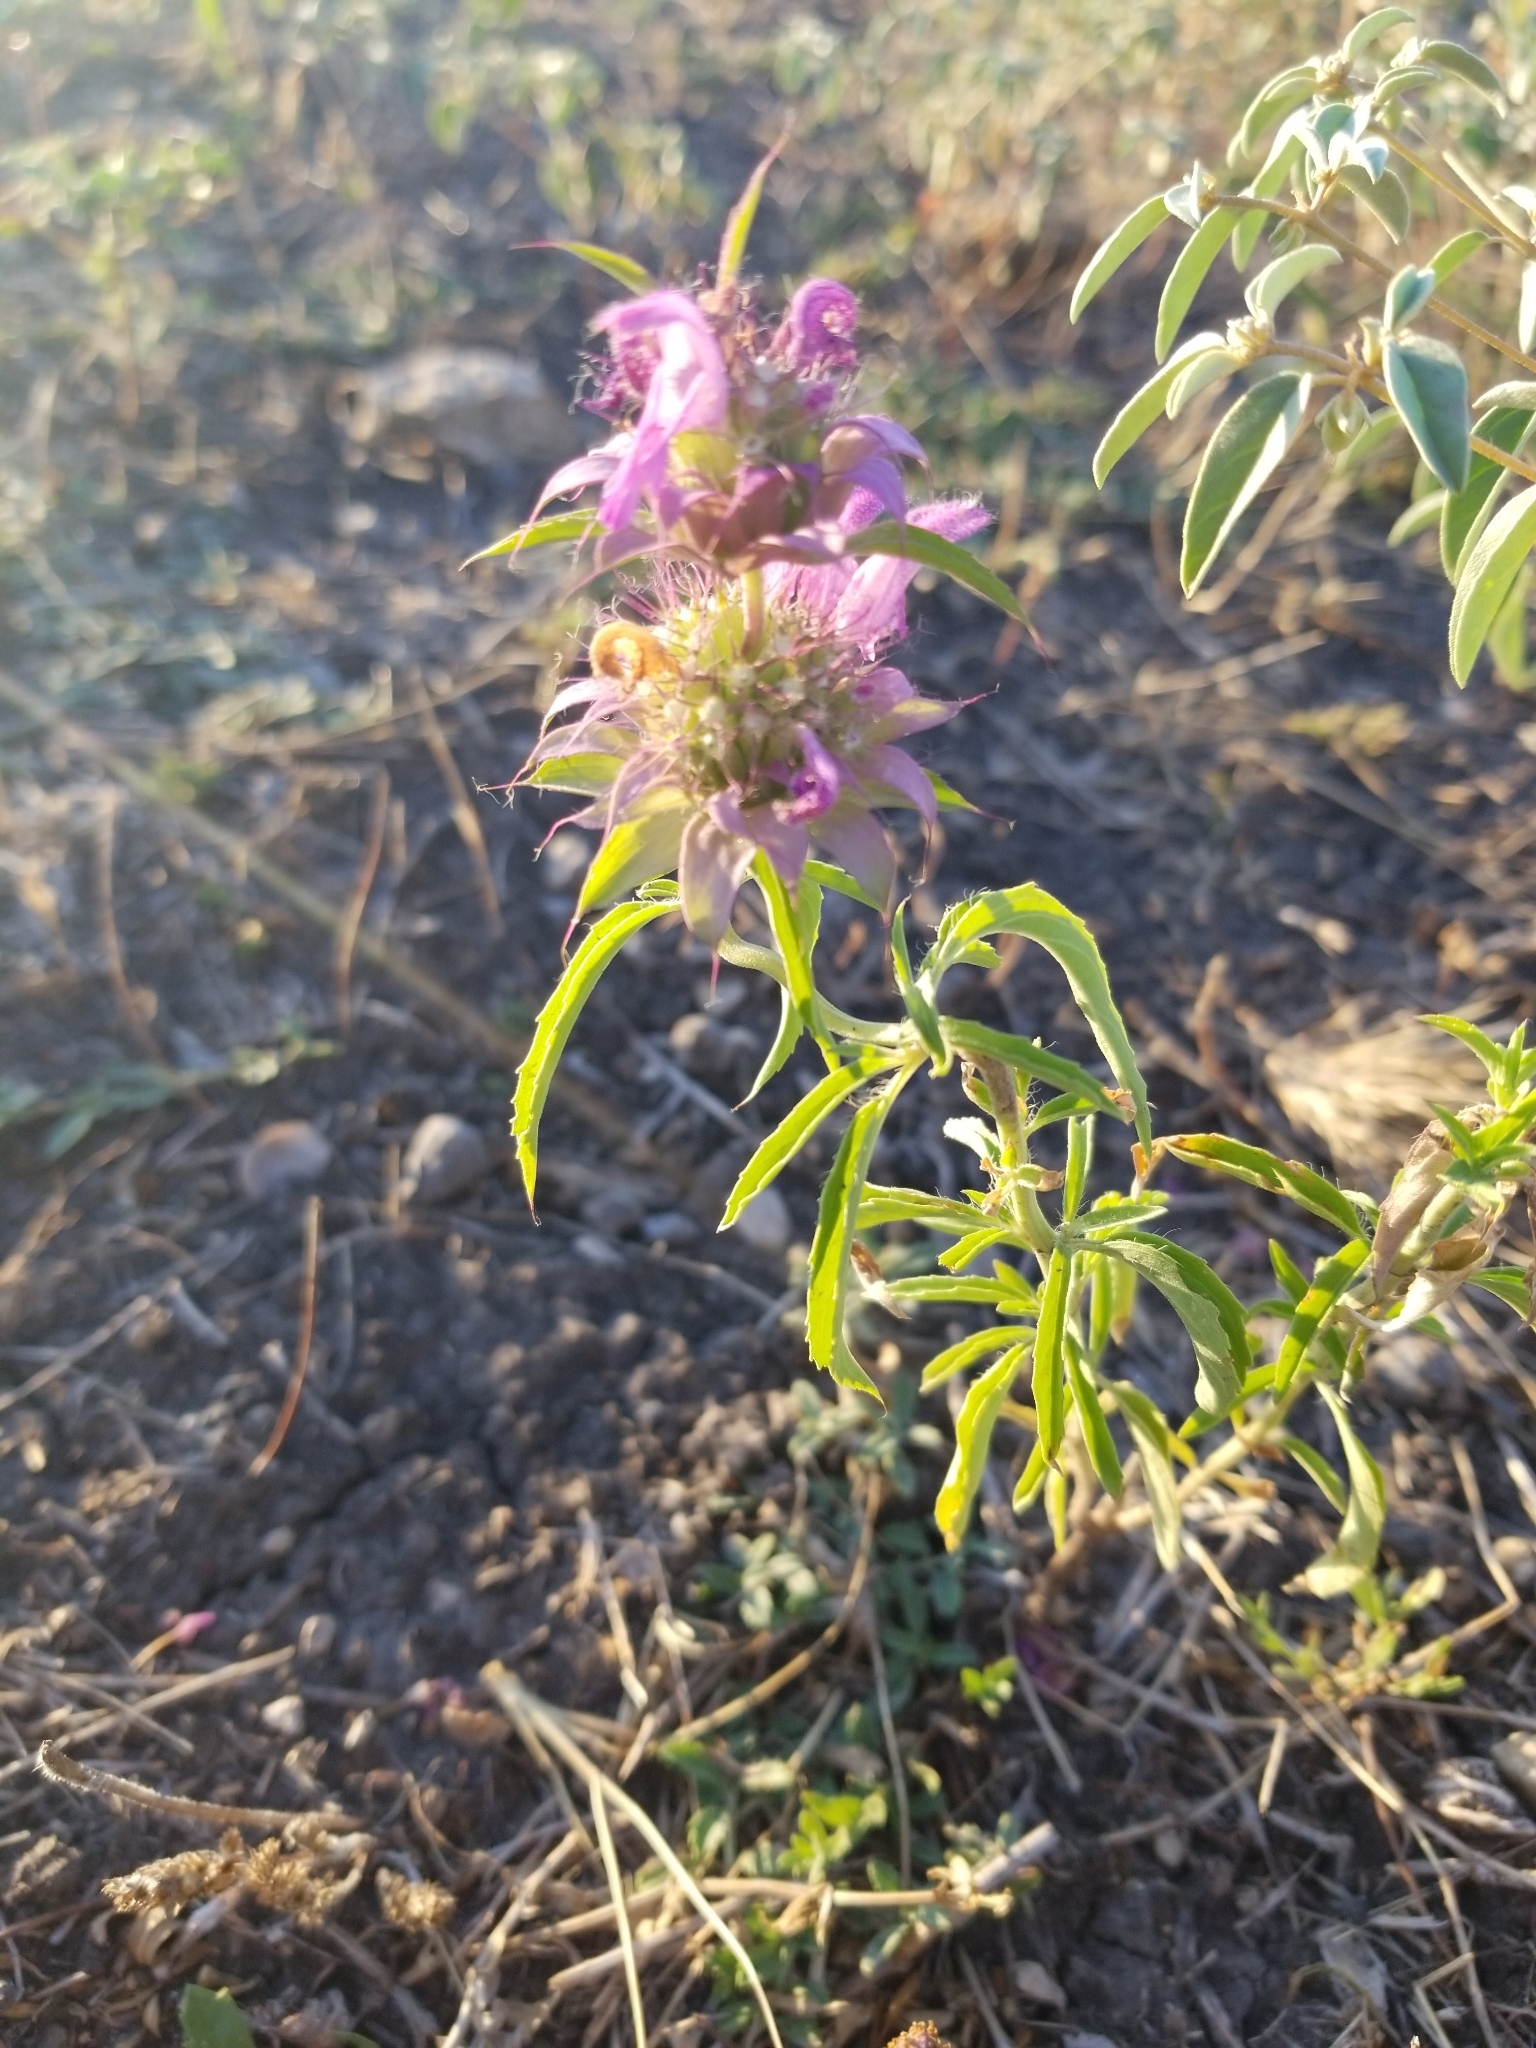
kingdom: Plantae
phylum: Tracheophyta
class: Magnoliopsida
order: Lamiales
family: Lamiaceae
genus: Monarda
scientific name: Monarda citriodora
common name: Lemon beebalm
